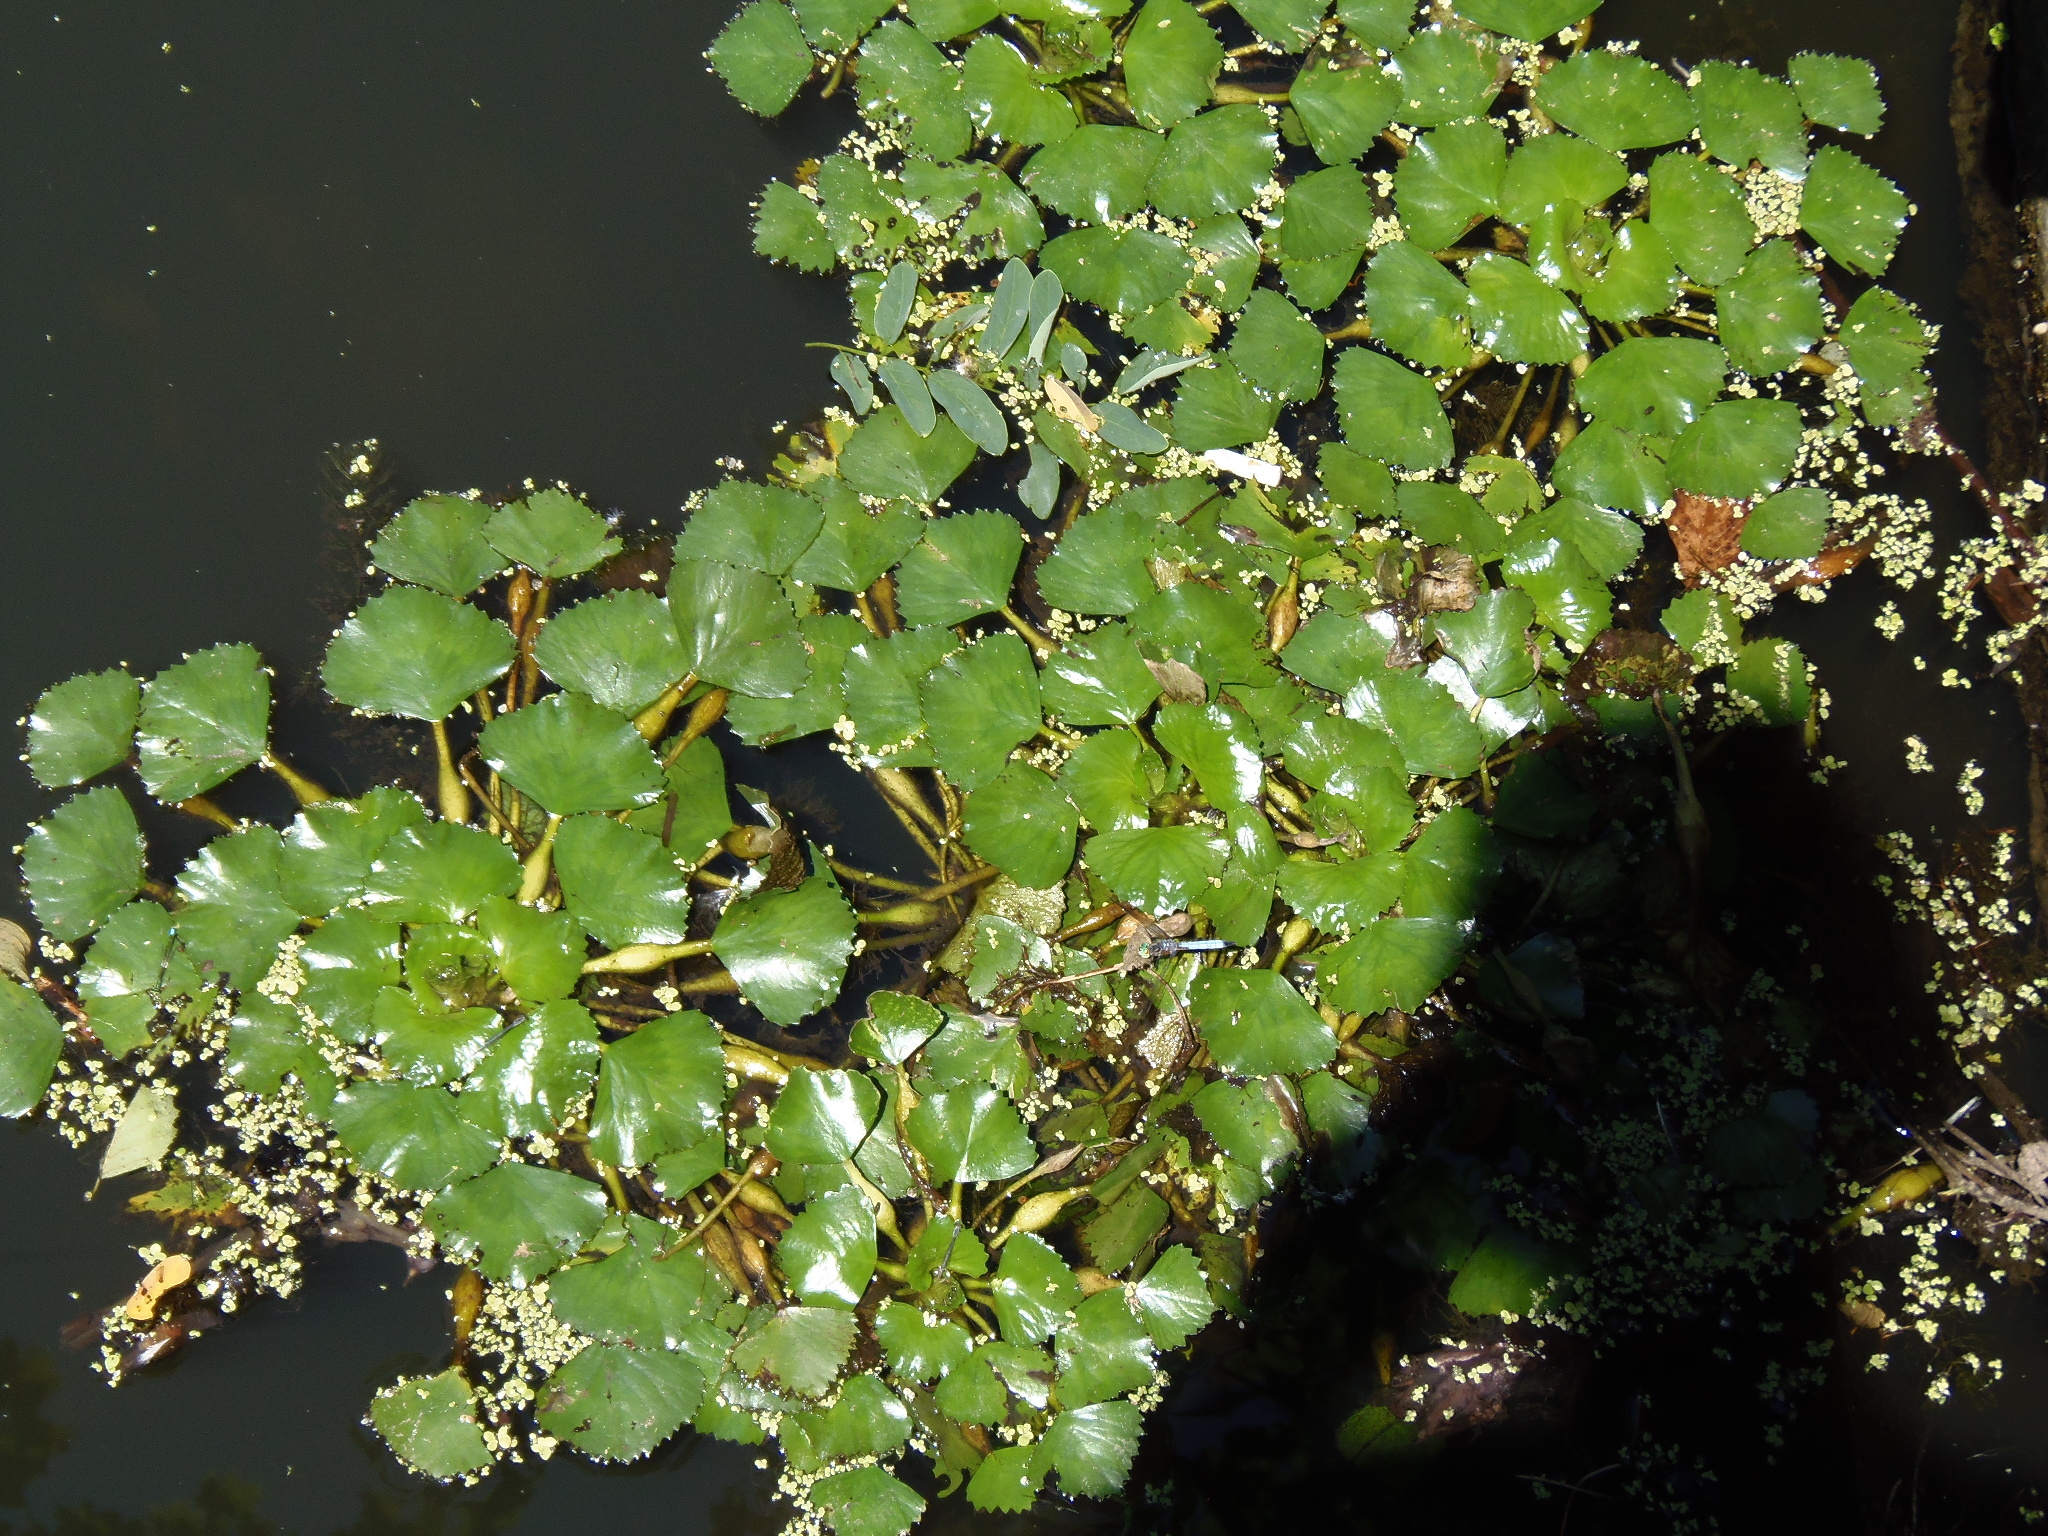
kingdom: Plantae
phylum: Tracheophyta
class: Magnoliopsida
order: Myrtales
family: Lythraceae
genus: Trapa
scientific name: Trapa natans
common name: Water chestnut
